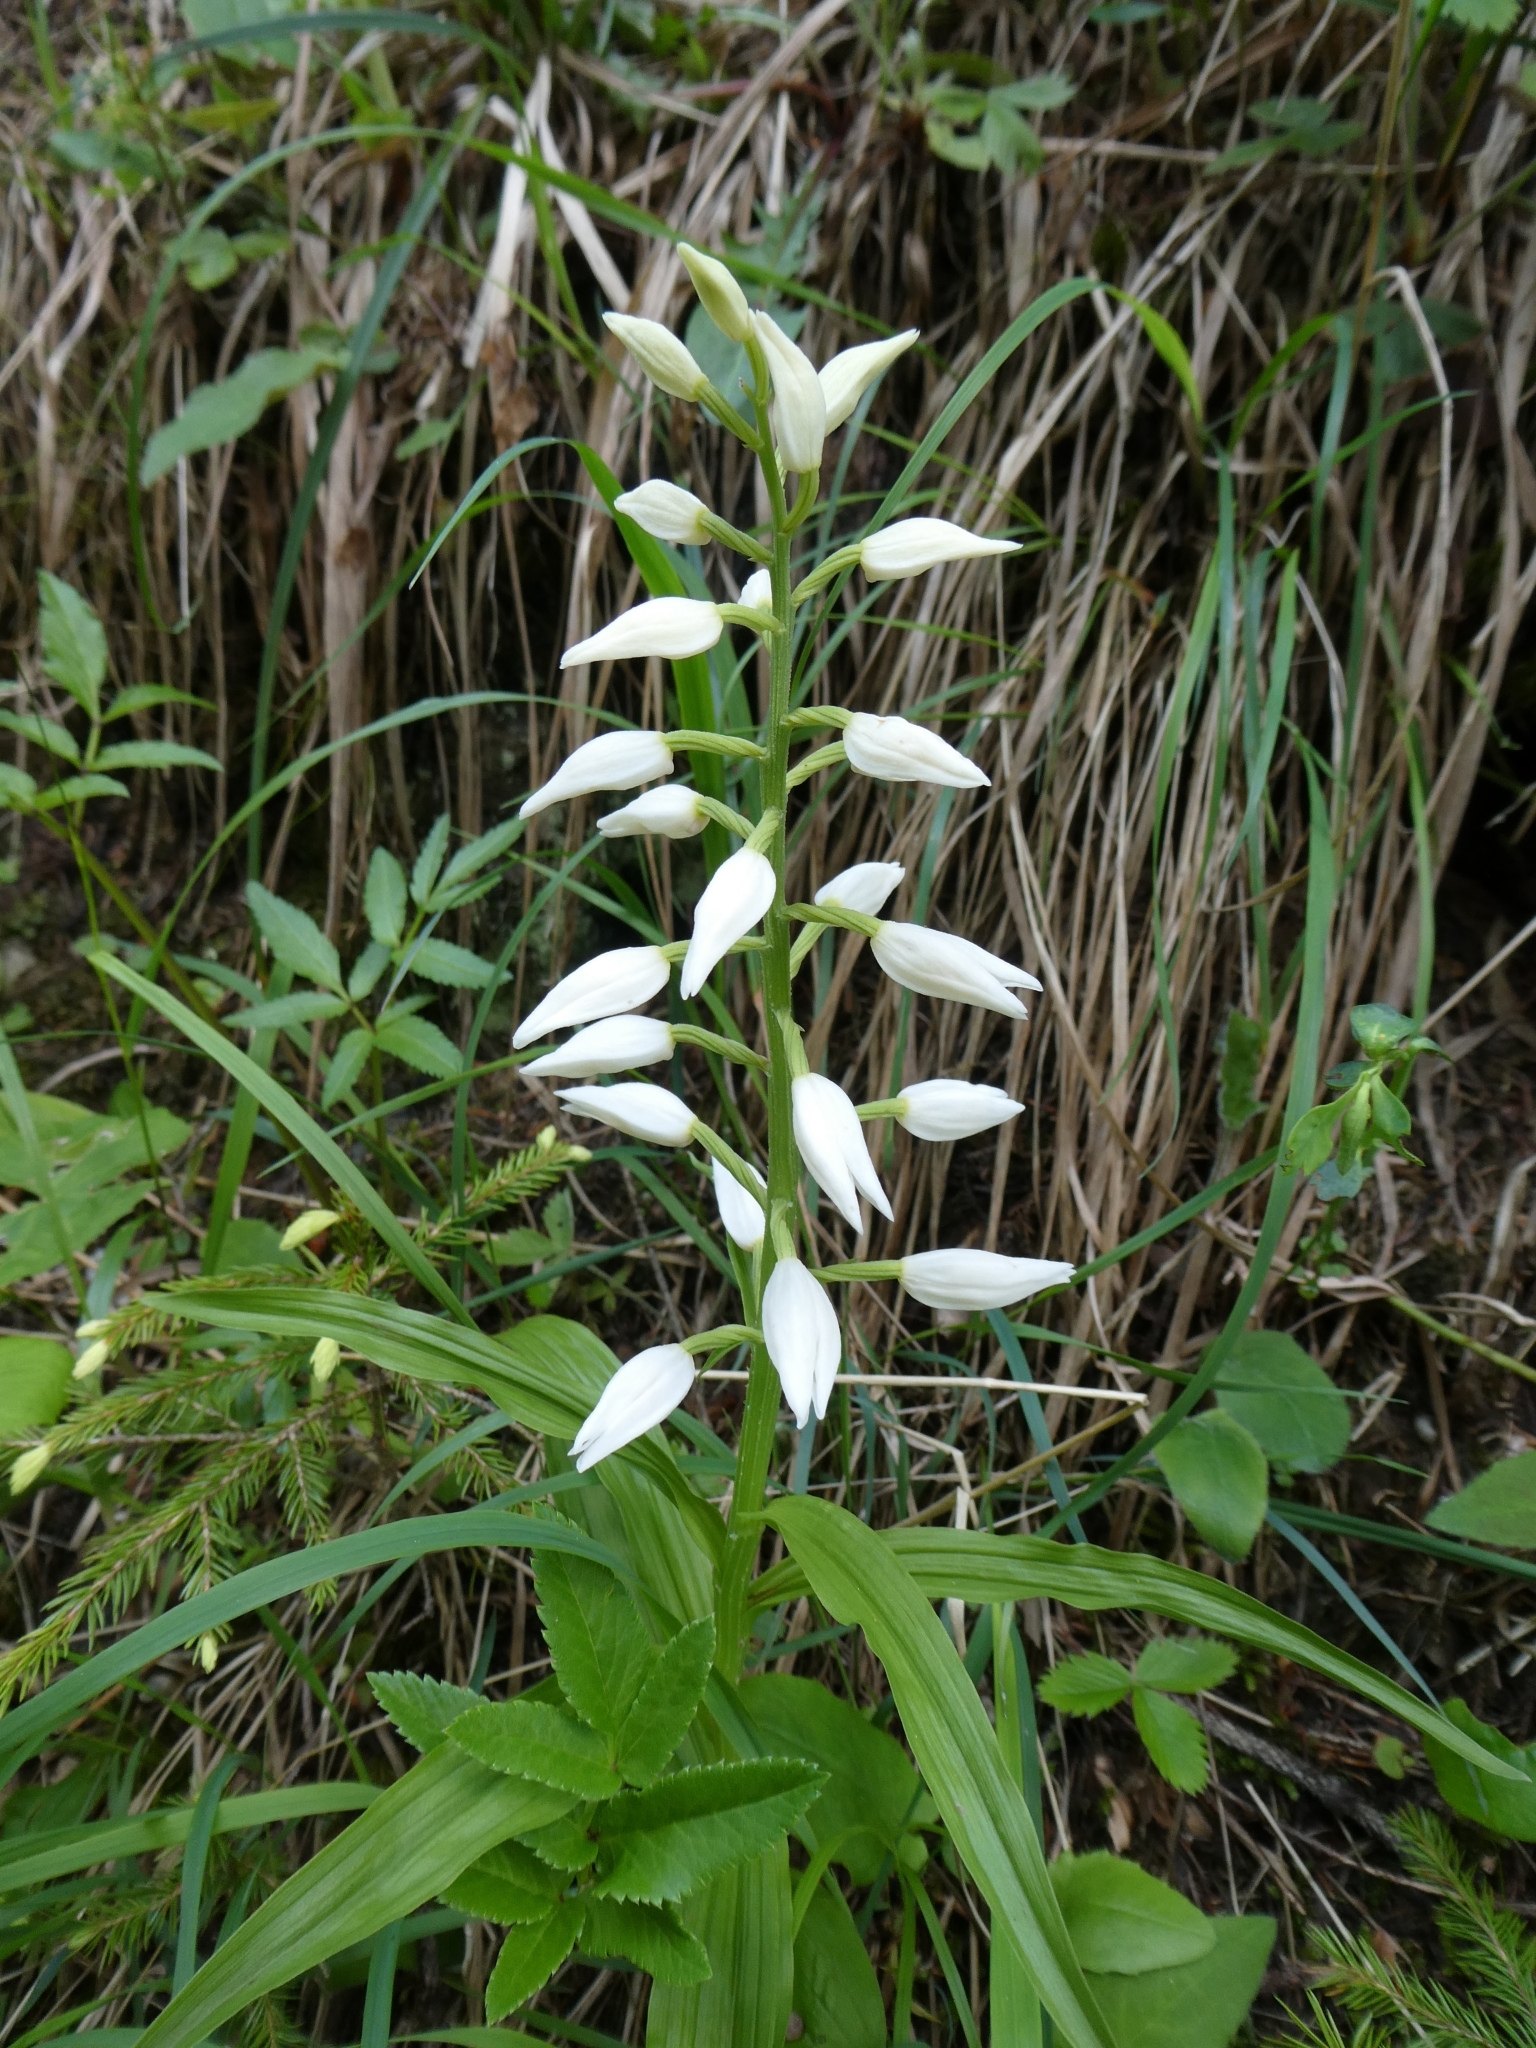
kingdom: Plantae
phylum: Tracheophyta
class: Liliopsida
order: Asparagales
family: Orchidaceae
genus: Cephalanthera
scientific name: Cephalanthera longifolia
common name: Narrow-leaved helleborine
